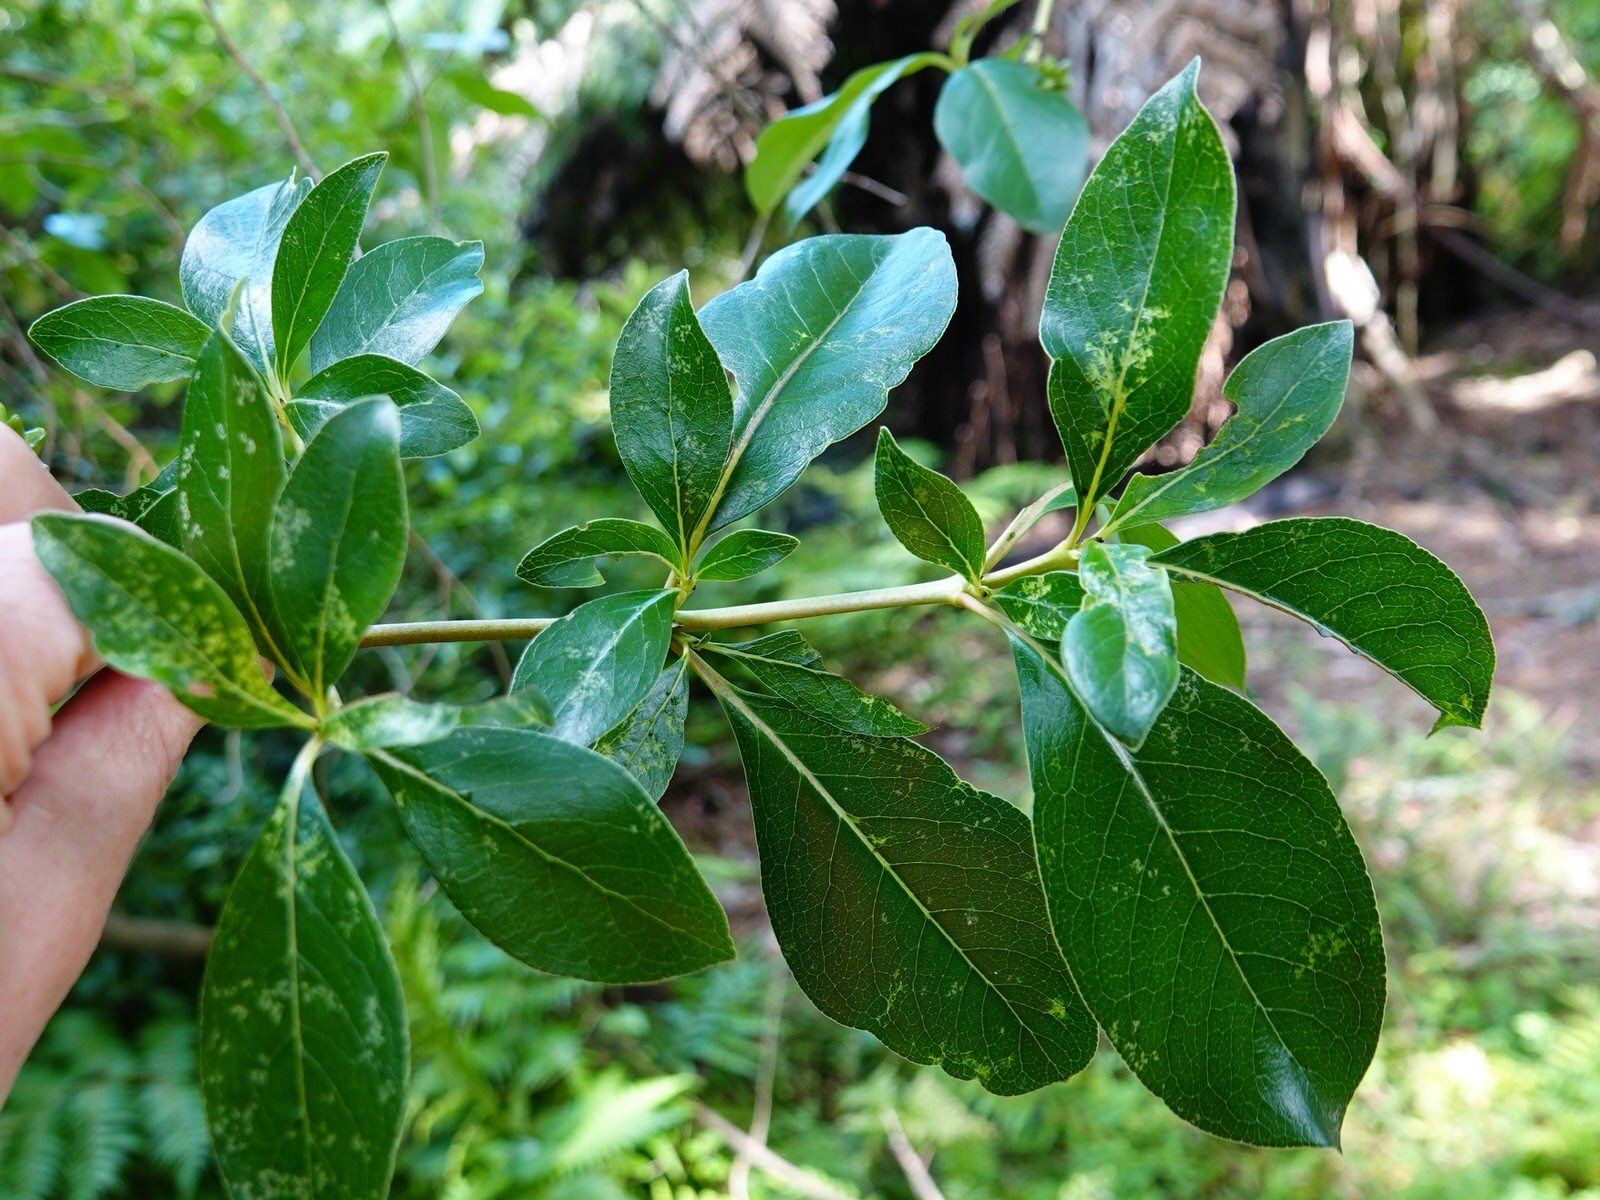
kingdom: Plantae
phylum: Tracheophyta
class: Magnoliopsida
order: Gentianales
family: Rubiaceae
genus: Coprosma
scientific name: Coprosma robusta
